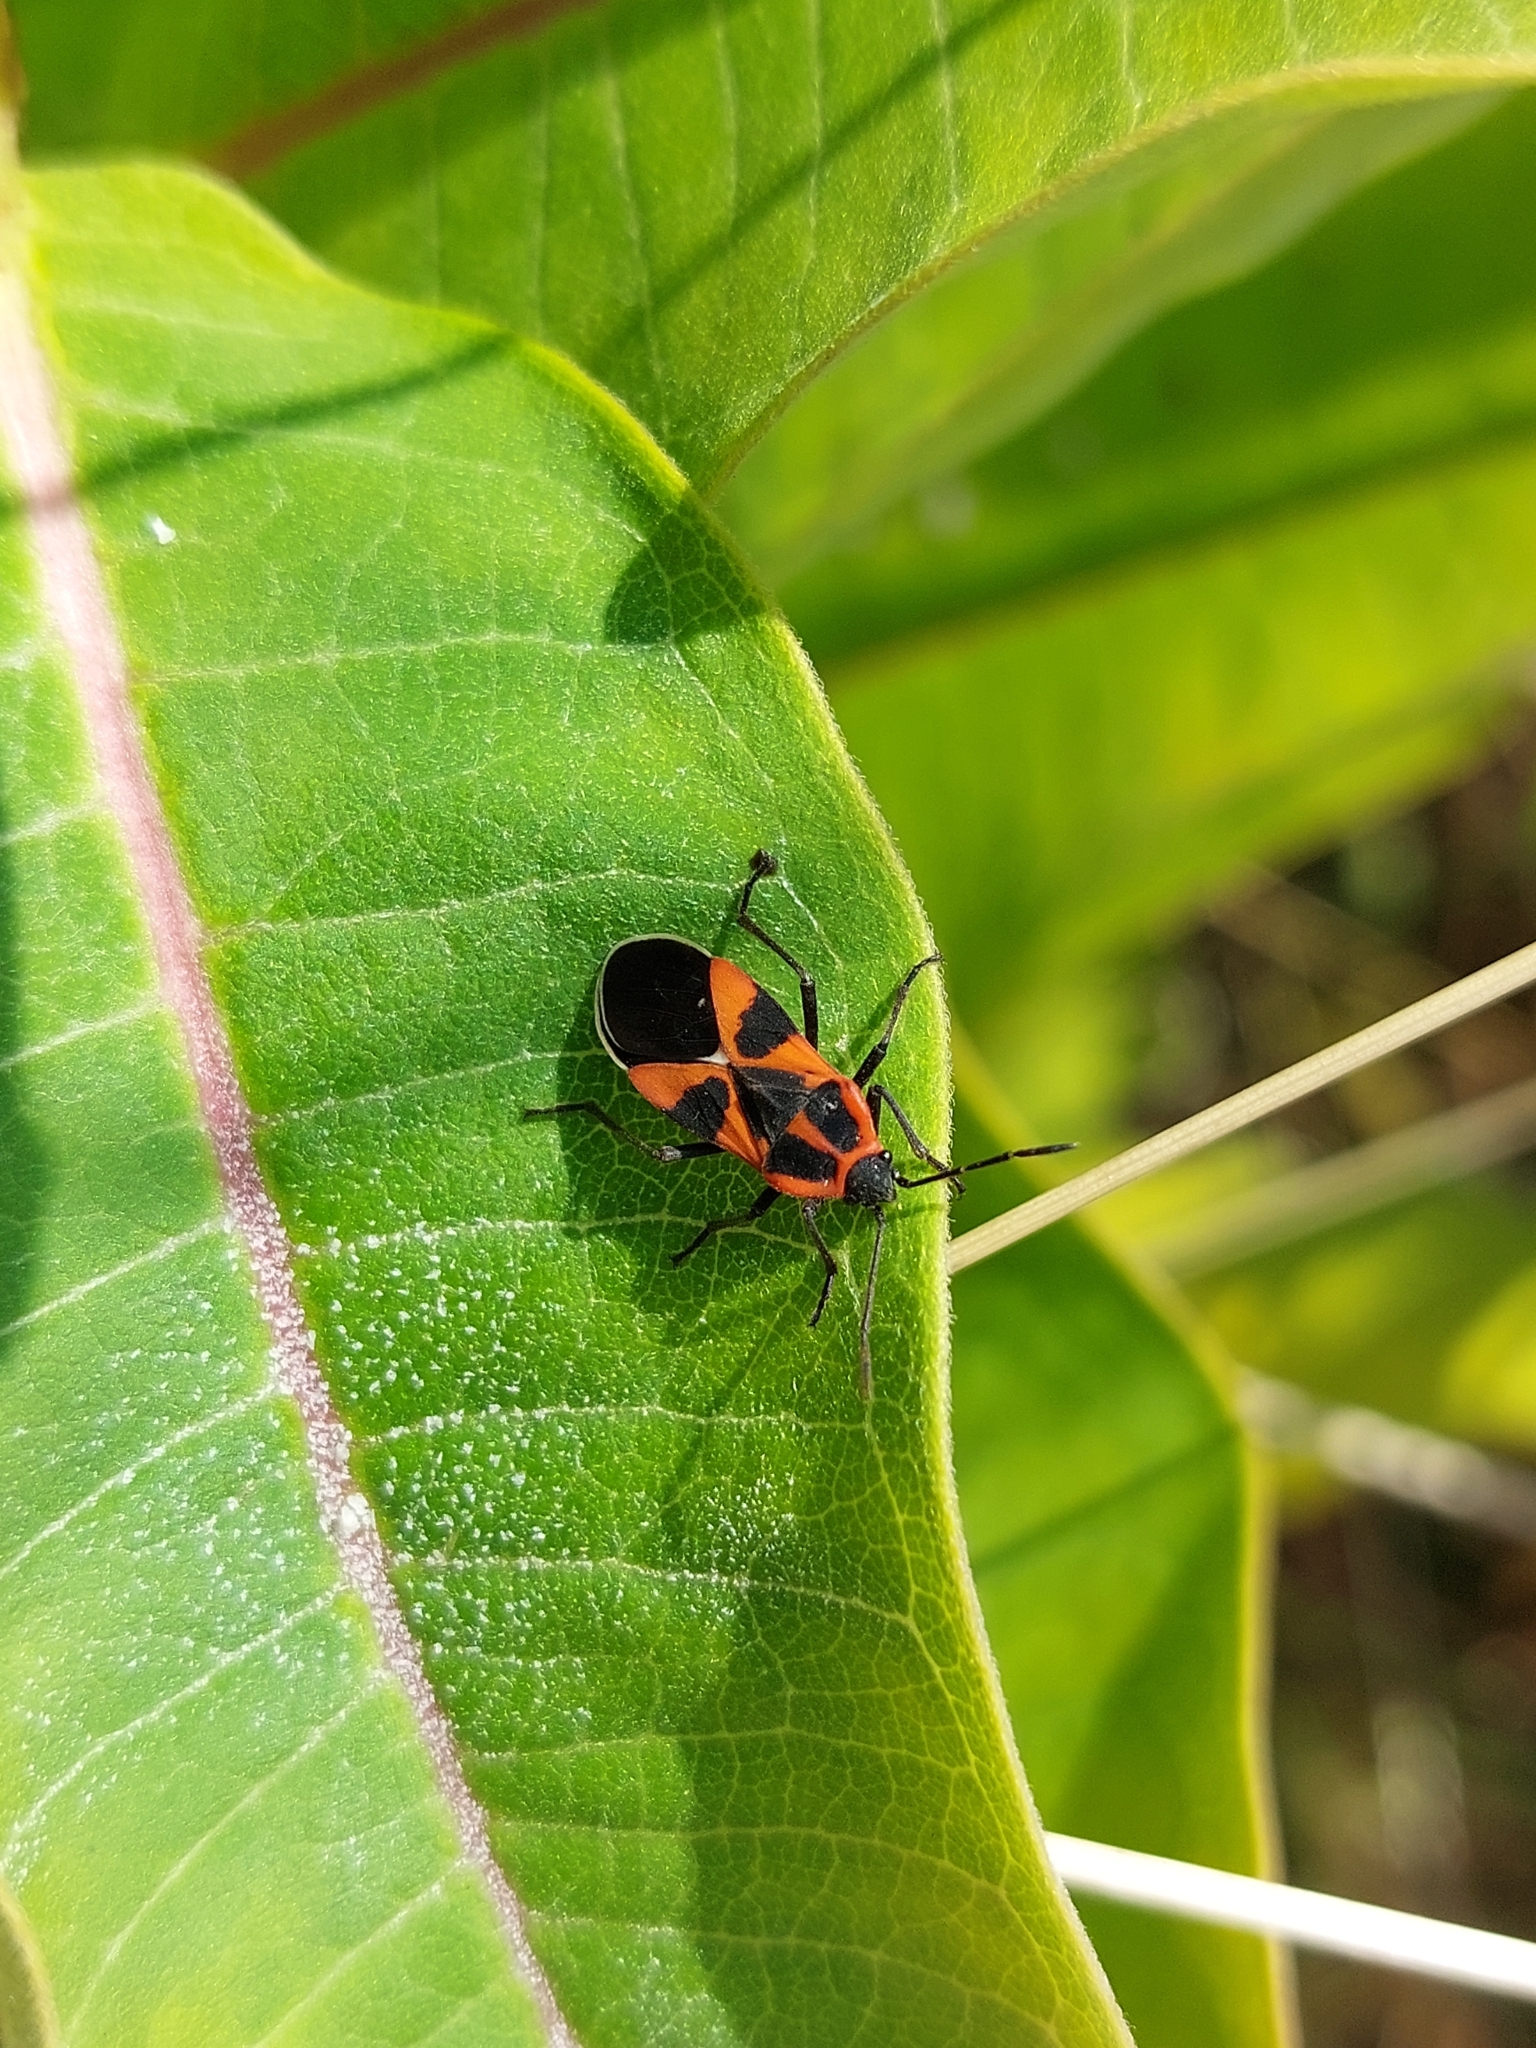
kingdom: Animalia
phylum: Arthropoda
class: Insecta
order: Hemiptera
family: Lygaeidae
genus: Tropidothorax
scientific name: Tropidothorax leucopterus
